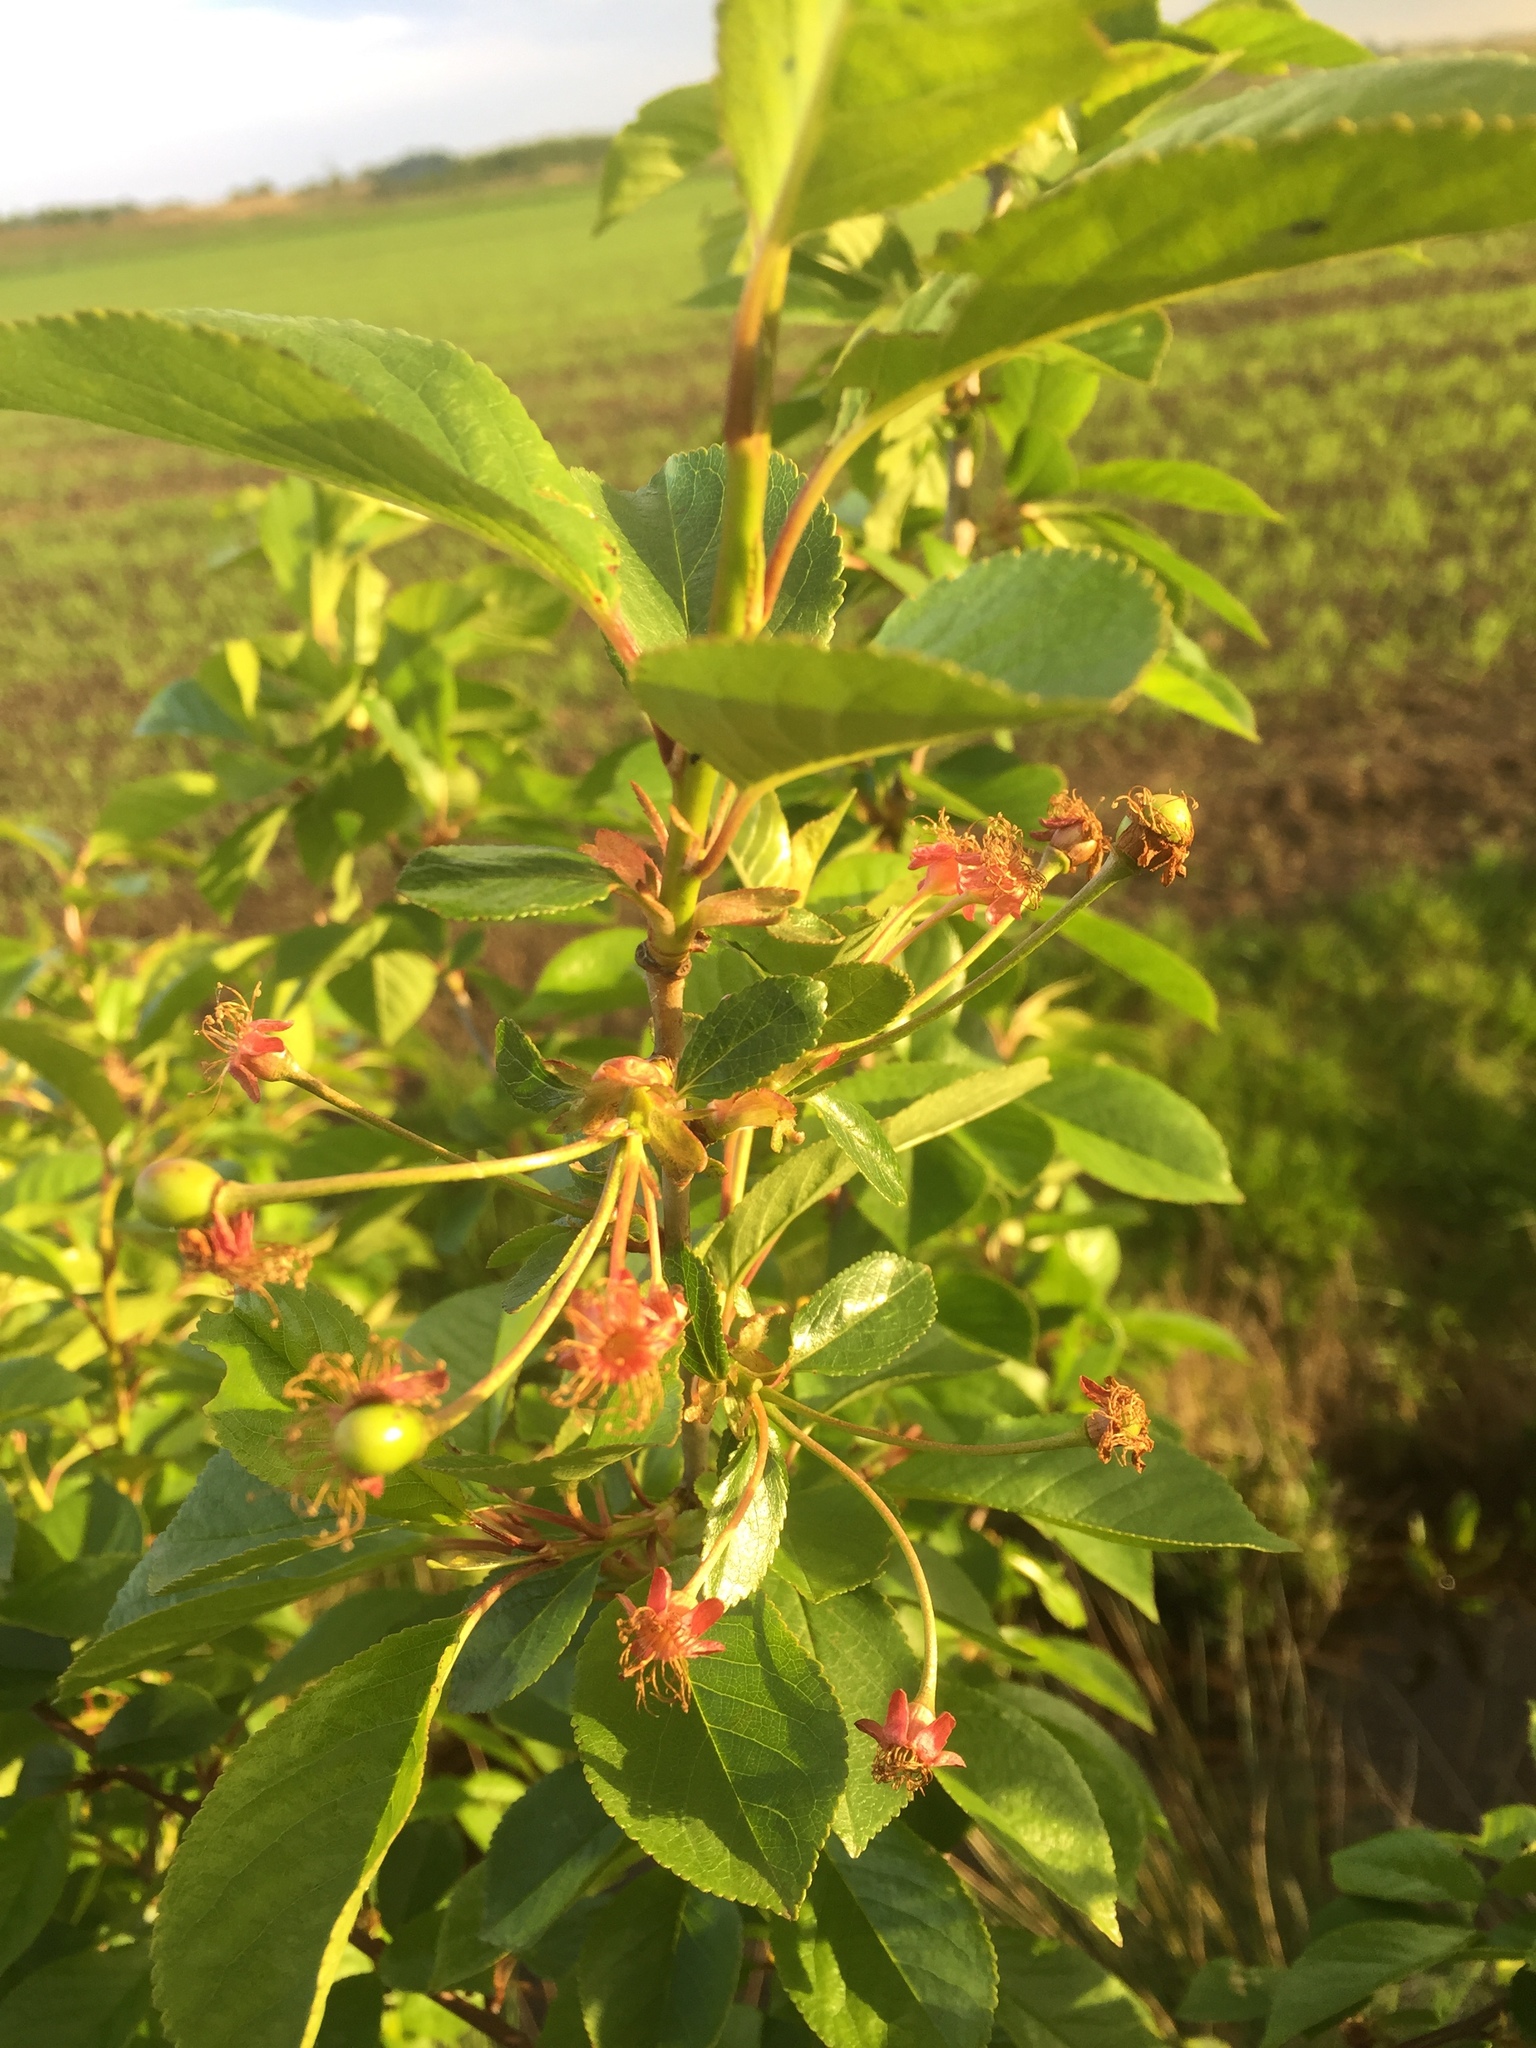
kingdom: Plantae
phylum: Tracheophyta
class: Magnoliopsida
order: Rosales
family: Rosaceae
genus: Prunus
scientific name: Prunus cerasus
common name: Morello cherry
